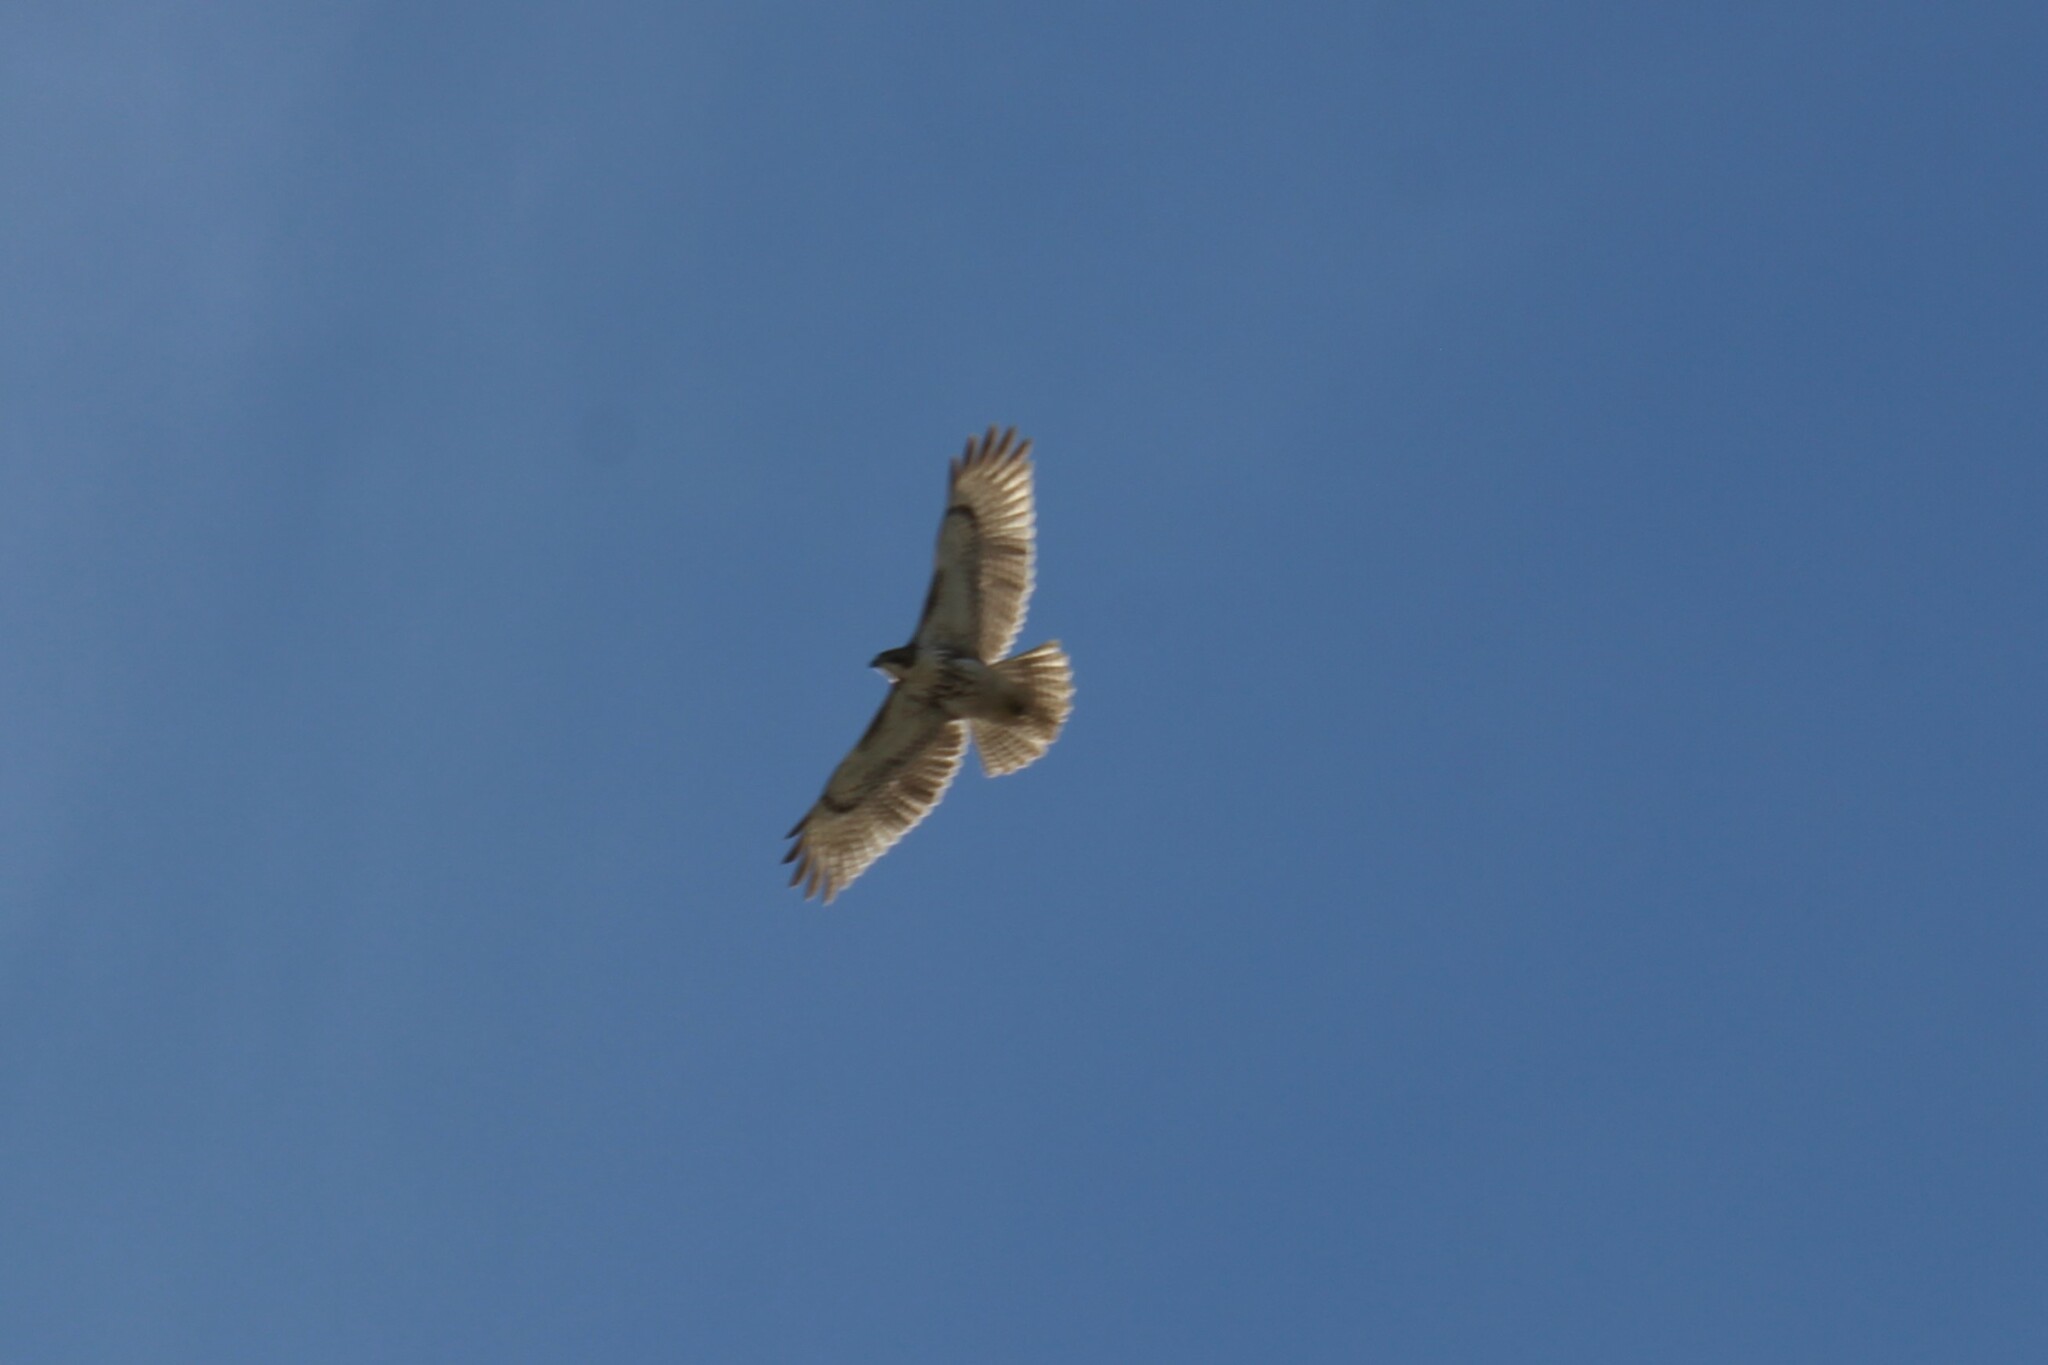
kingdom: Animalia
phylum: Chordata
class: Aves
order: Accipitriformes
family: Accipitridae
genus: Buteo
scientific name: Buteo jamaicensis
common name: Red-tailed hawk
